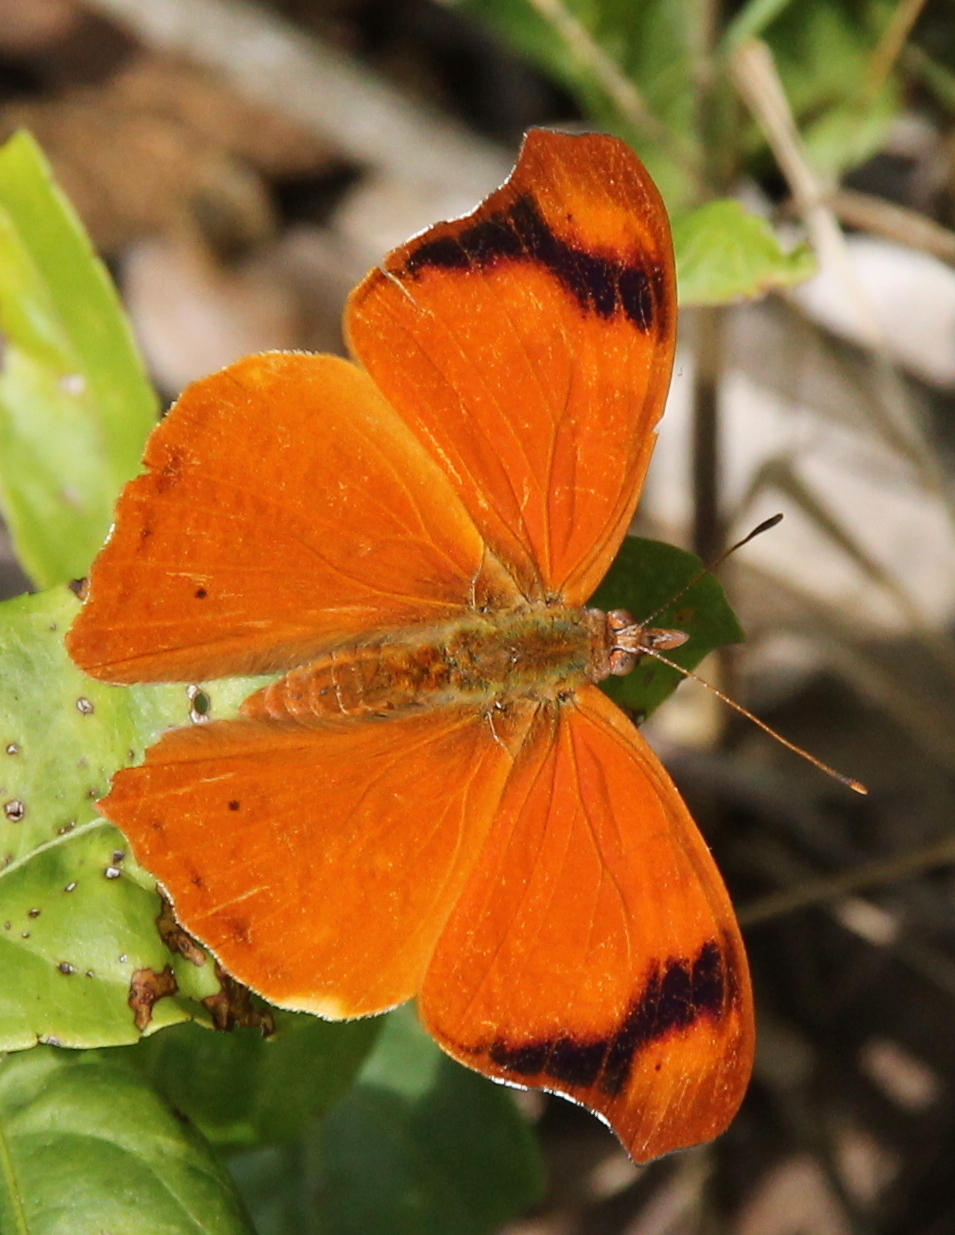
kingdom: Animalia
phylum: Arthropoda
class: Insecta
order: Lepidoptera
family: Nymphalidae
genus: Temenis
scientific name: Temenis laothoe
